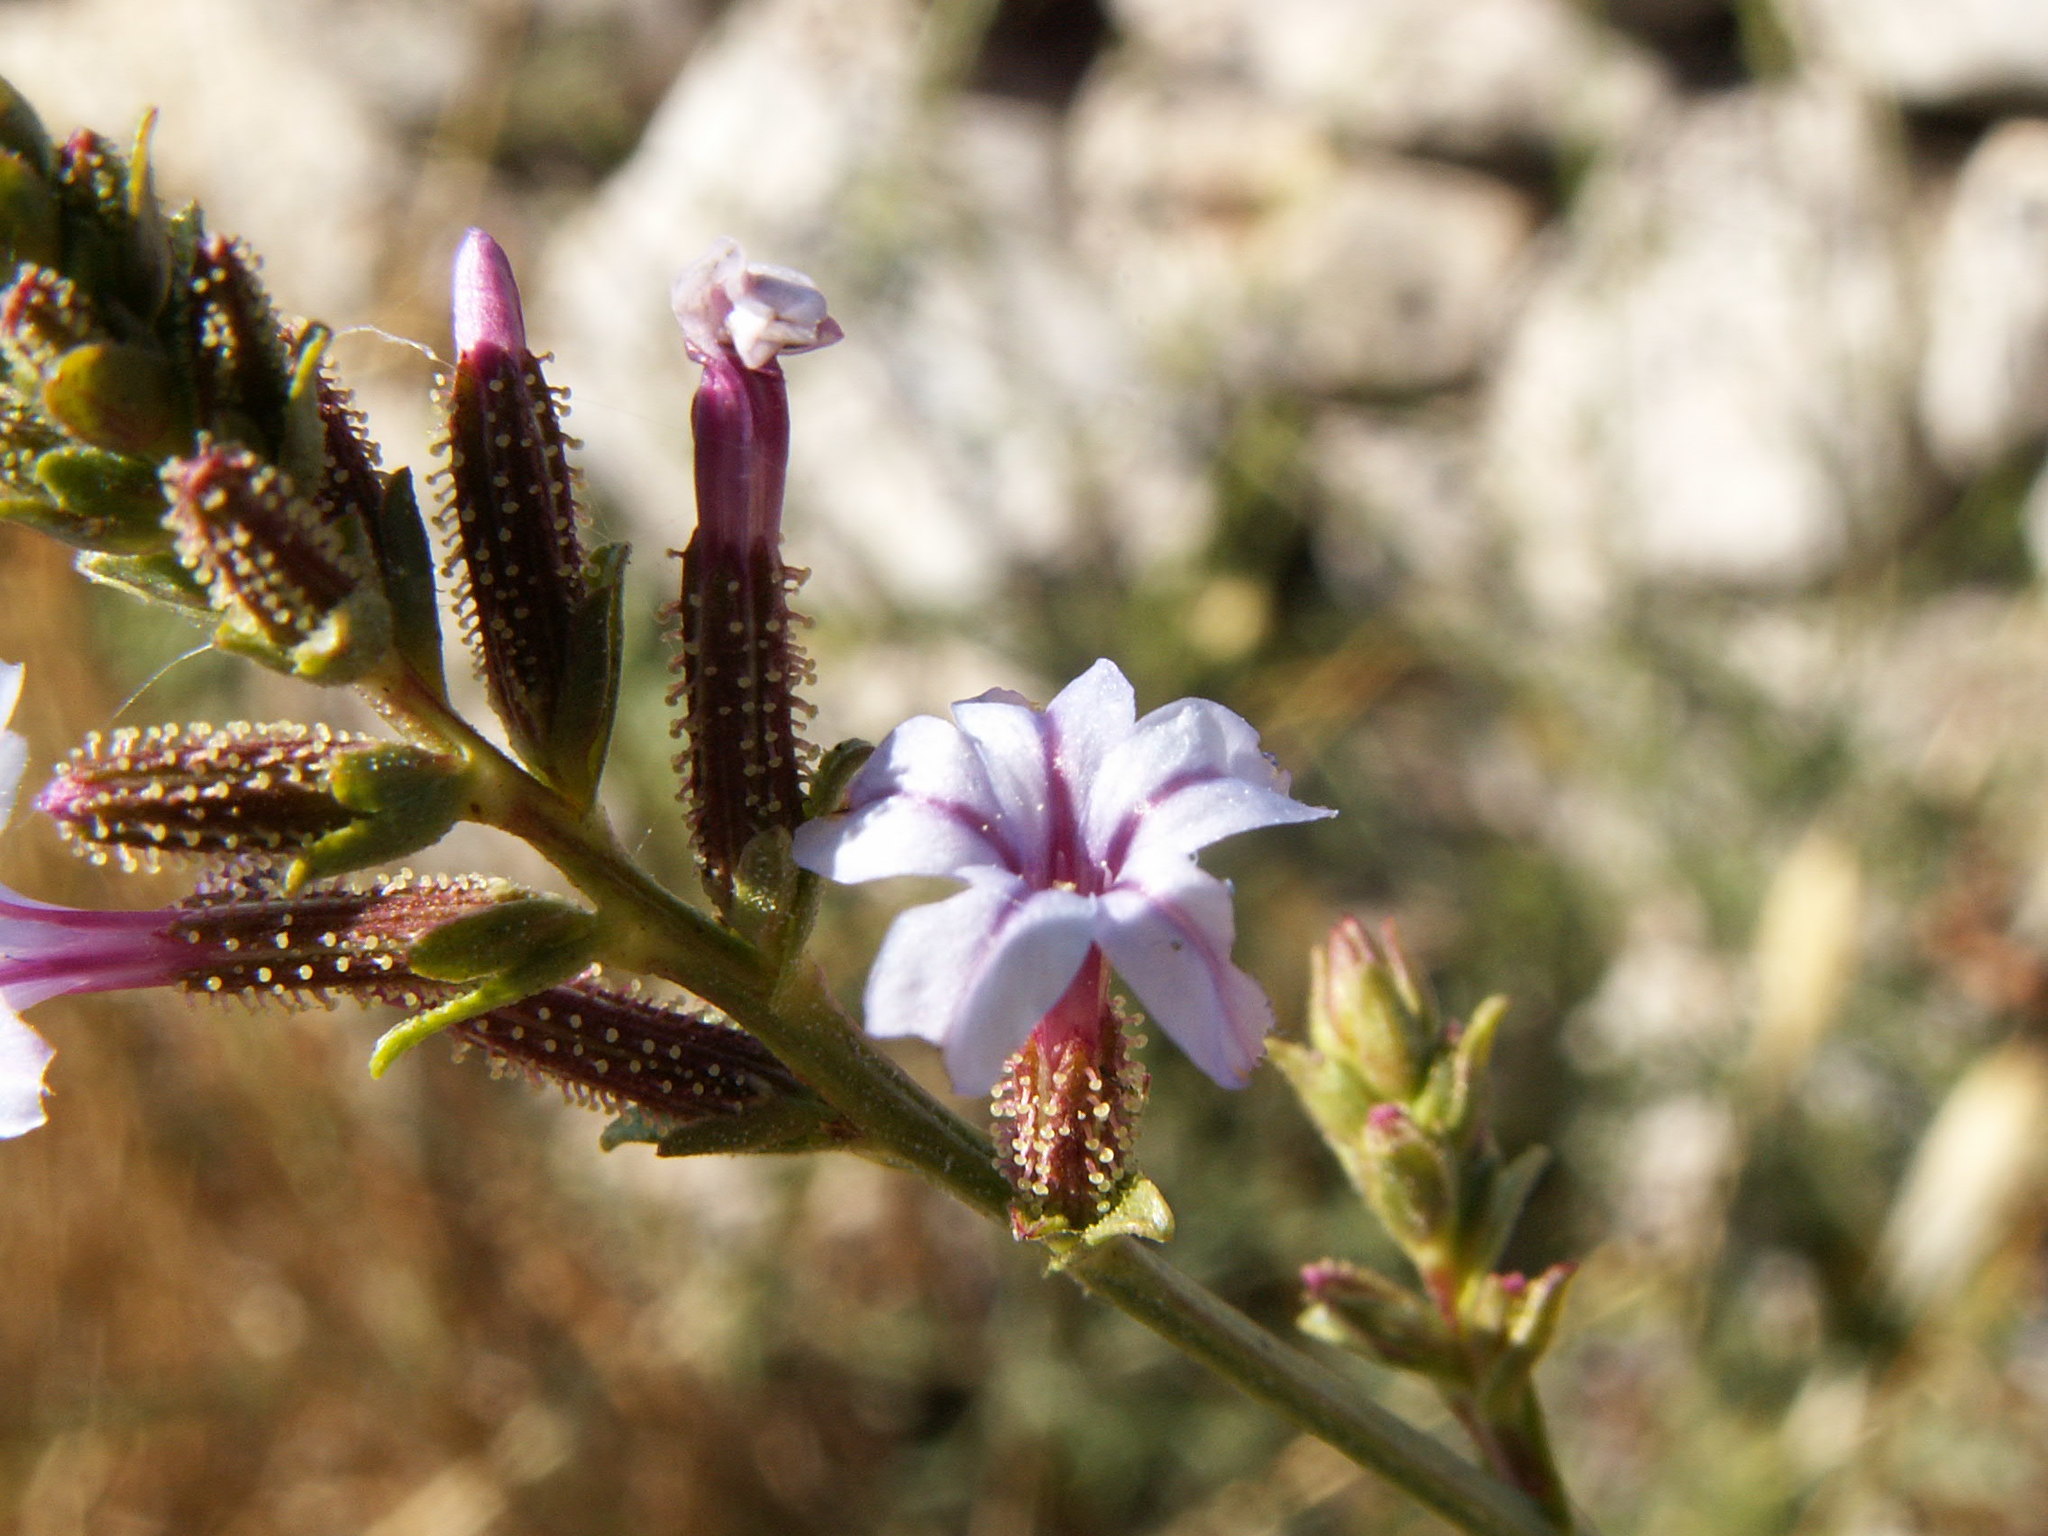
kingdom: Plantae
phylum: Tracheophyta
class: Magnoliopsida
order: Caryophyllales
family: Plumbaginaceae
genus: Plumbago
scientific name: Plumbago europaea
